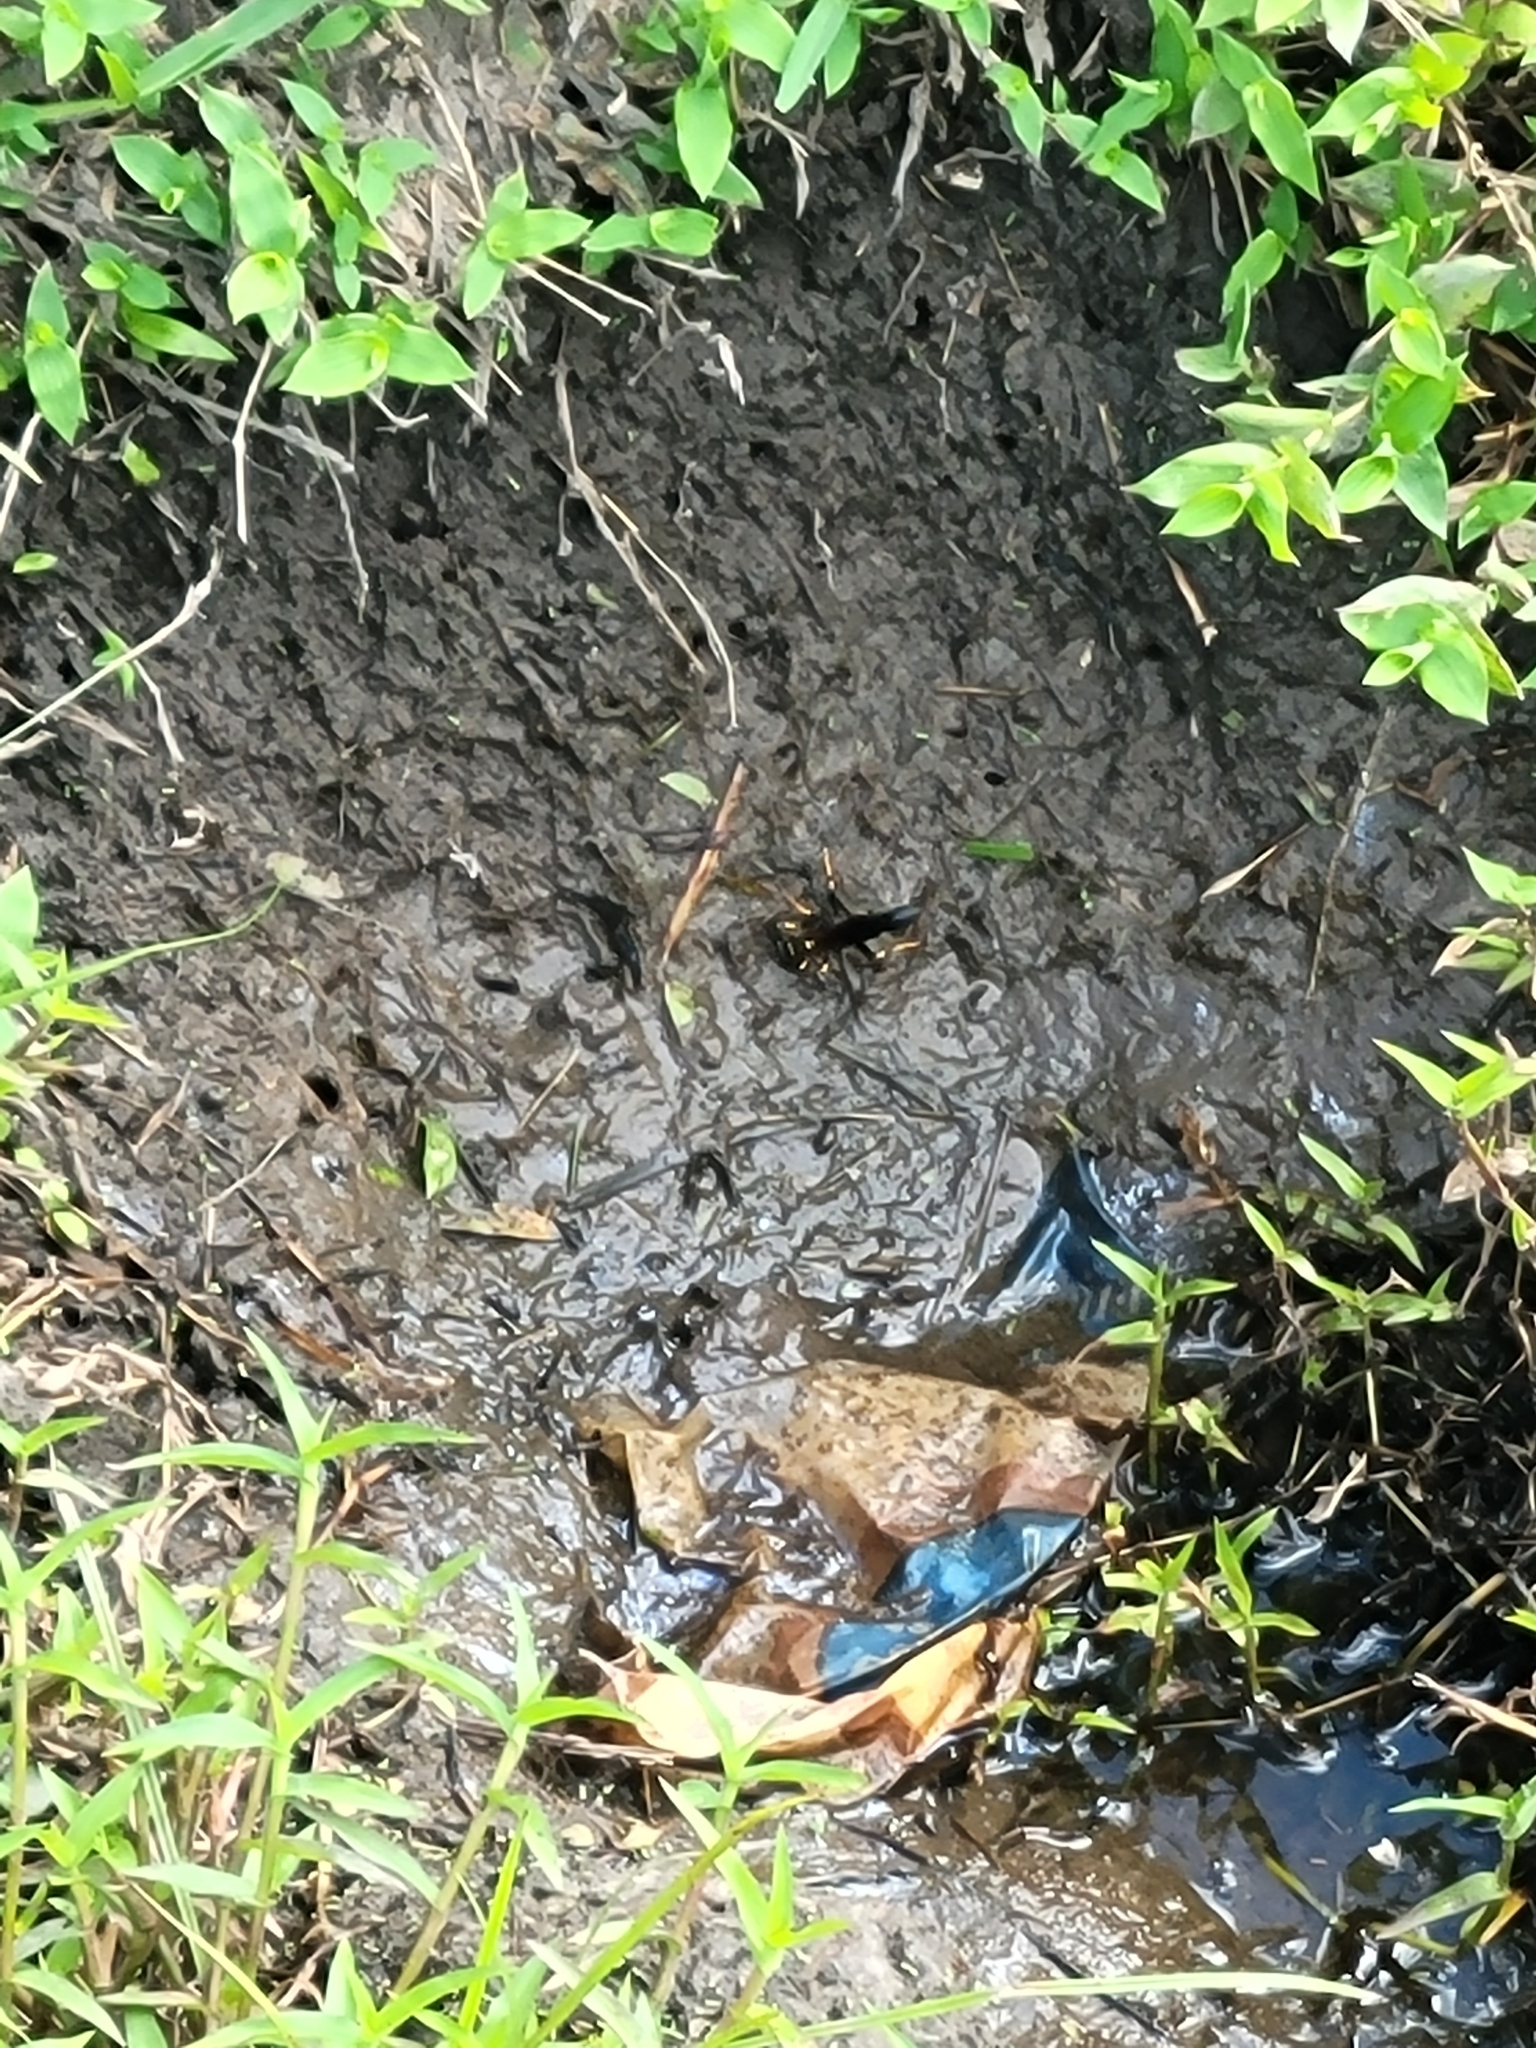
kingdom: Animalia
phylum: Arthropoda
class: Insecta
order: Hymenoptera
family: Sphecidae
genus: Sceliphron
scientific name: Sceliphron caementarium
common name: Mud dauber
